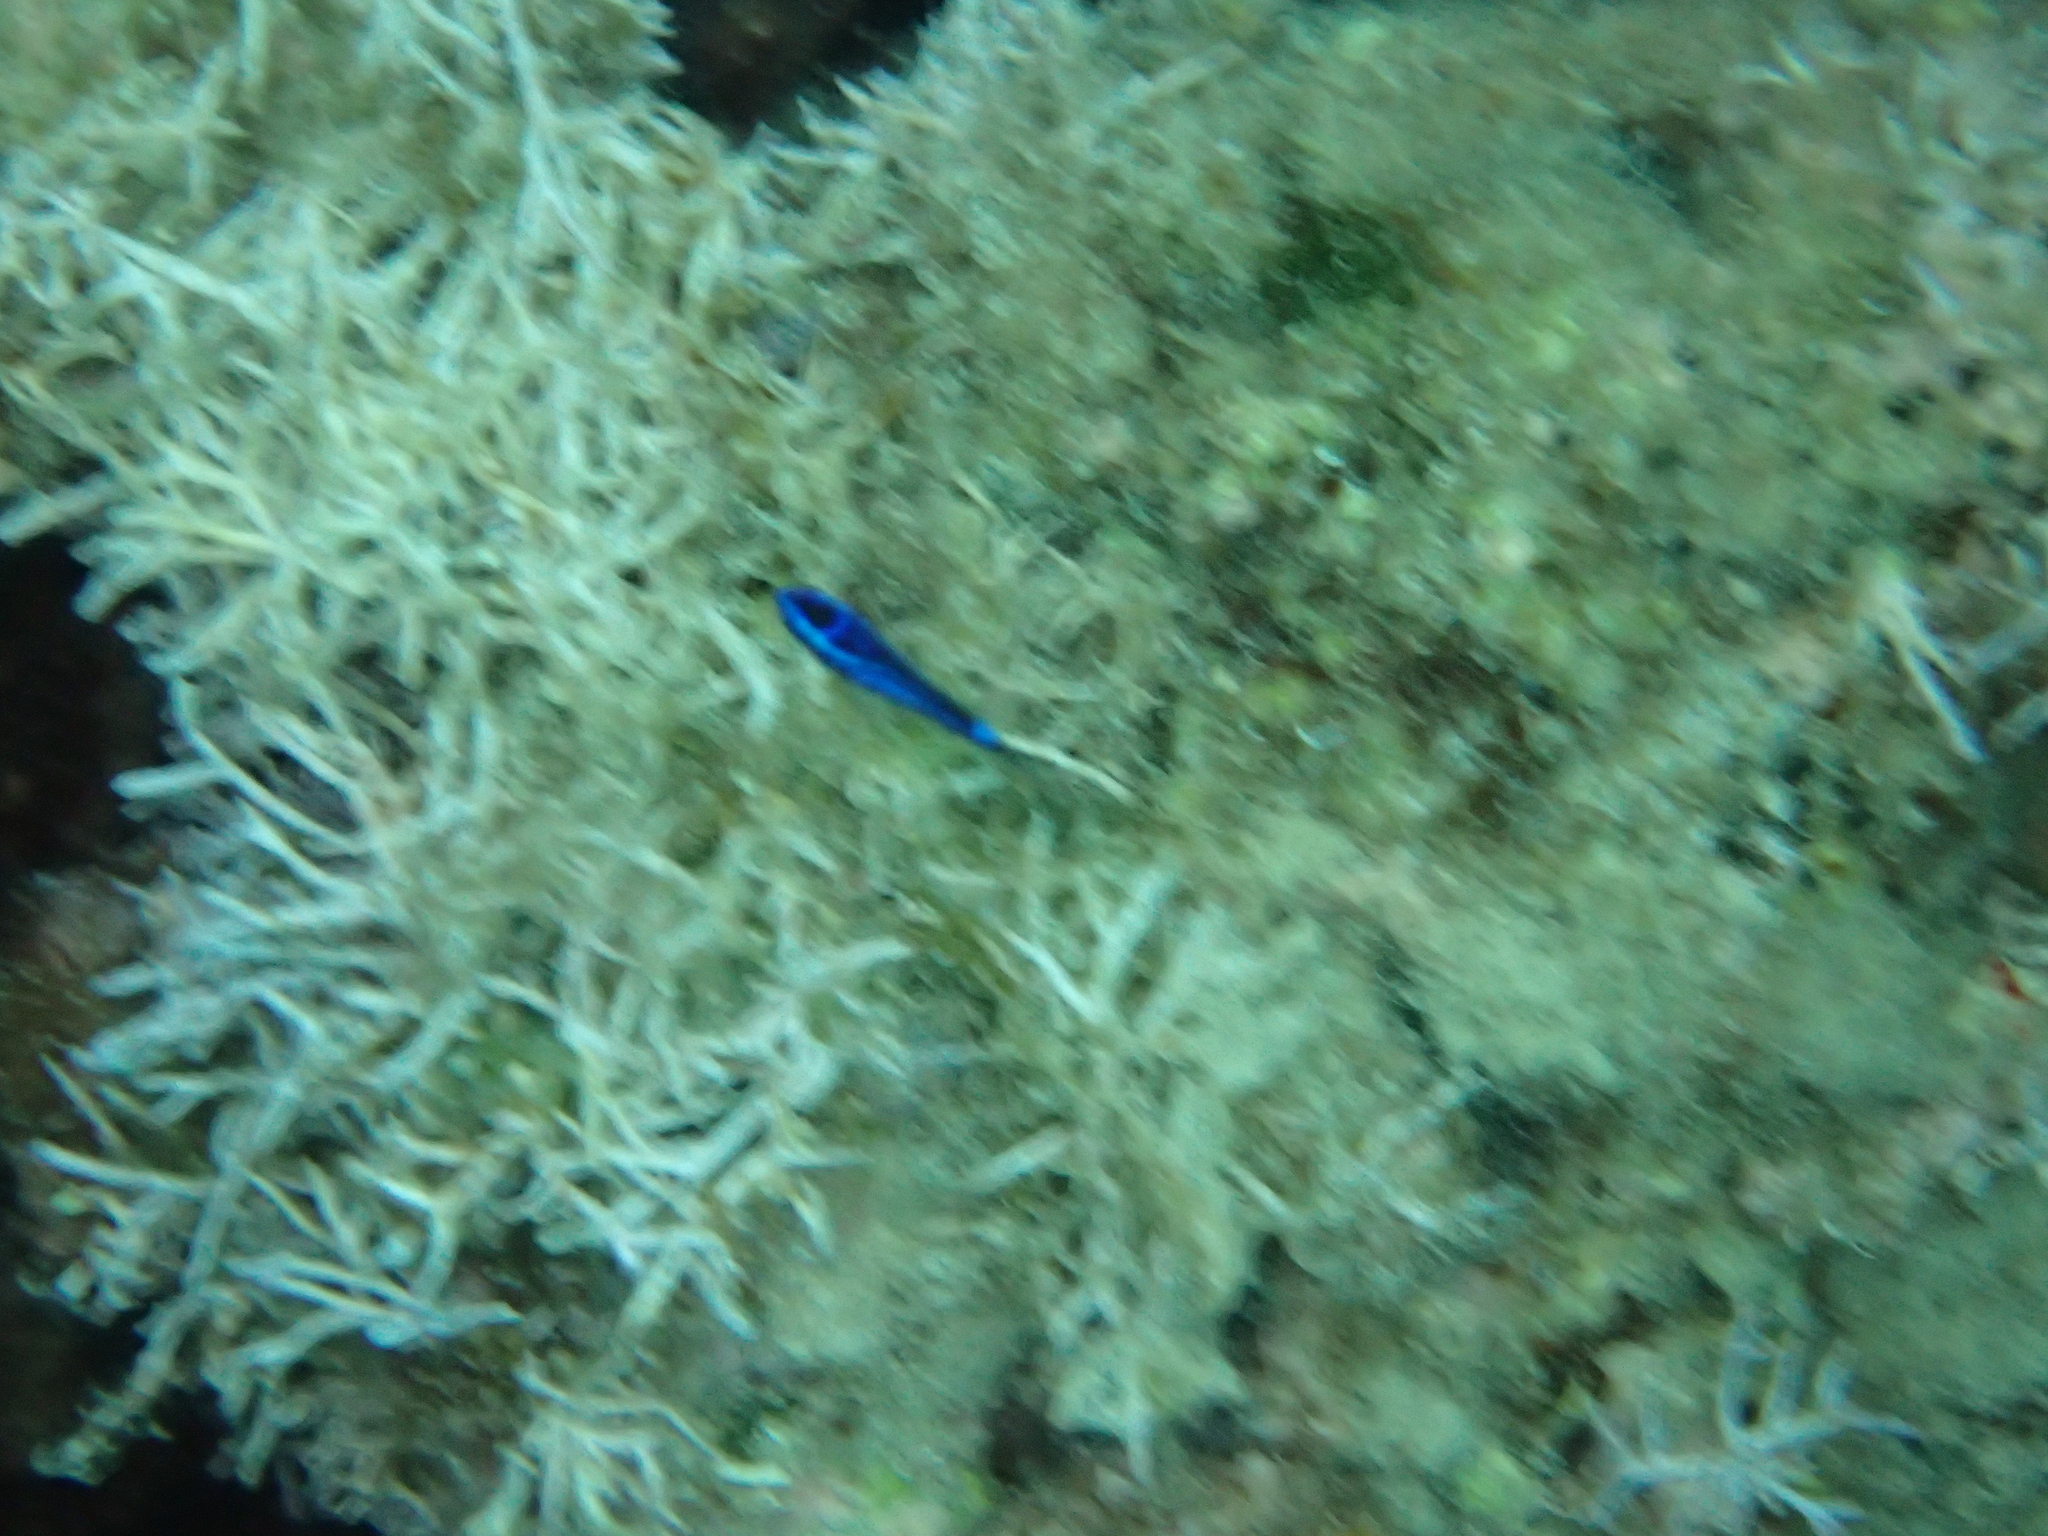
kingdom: Animalia
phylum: Chordata
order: Perciformes
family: Pomacentridae
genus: Chromis
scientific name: Chromis chromis
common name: Damselfish
